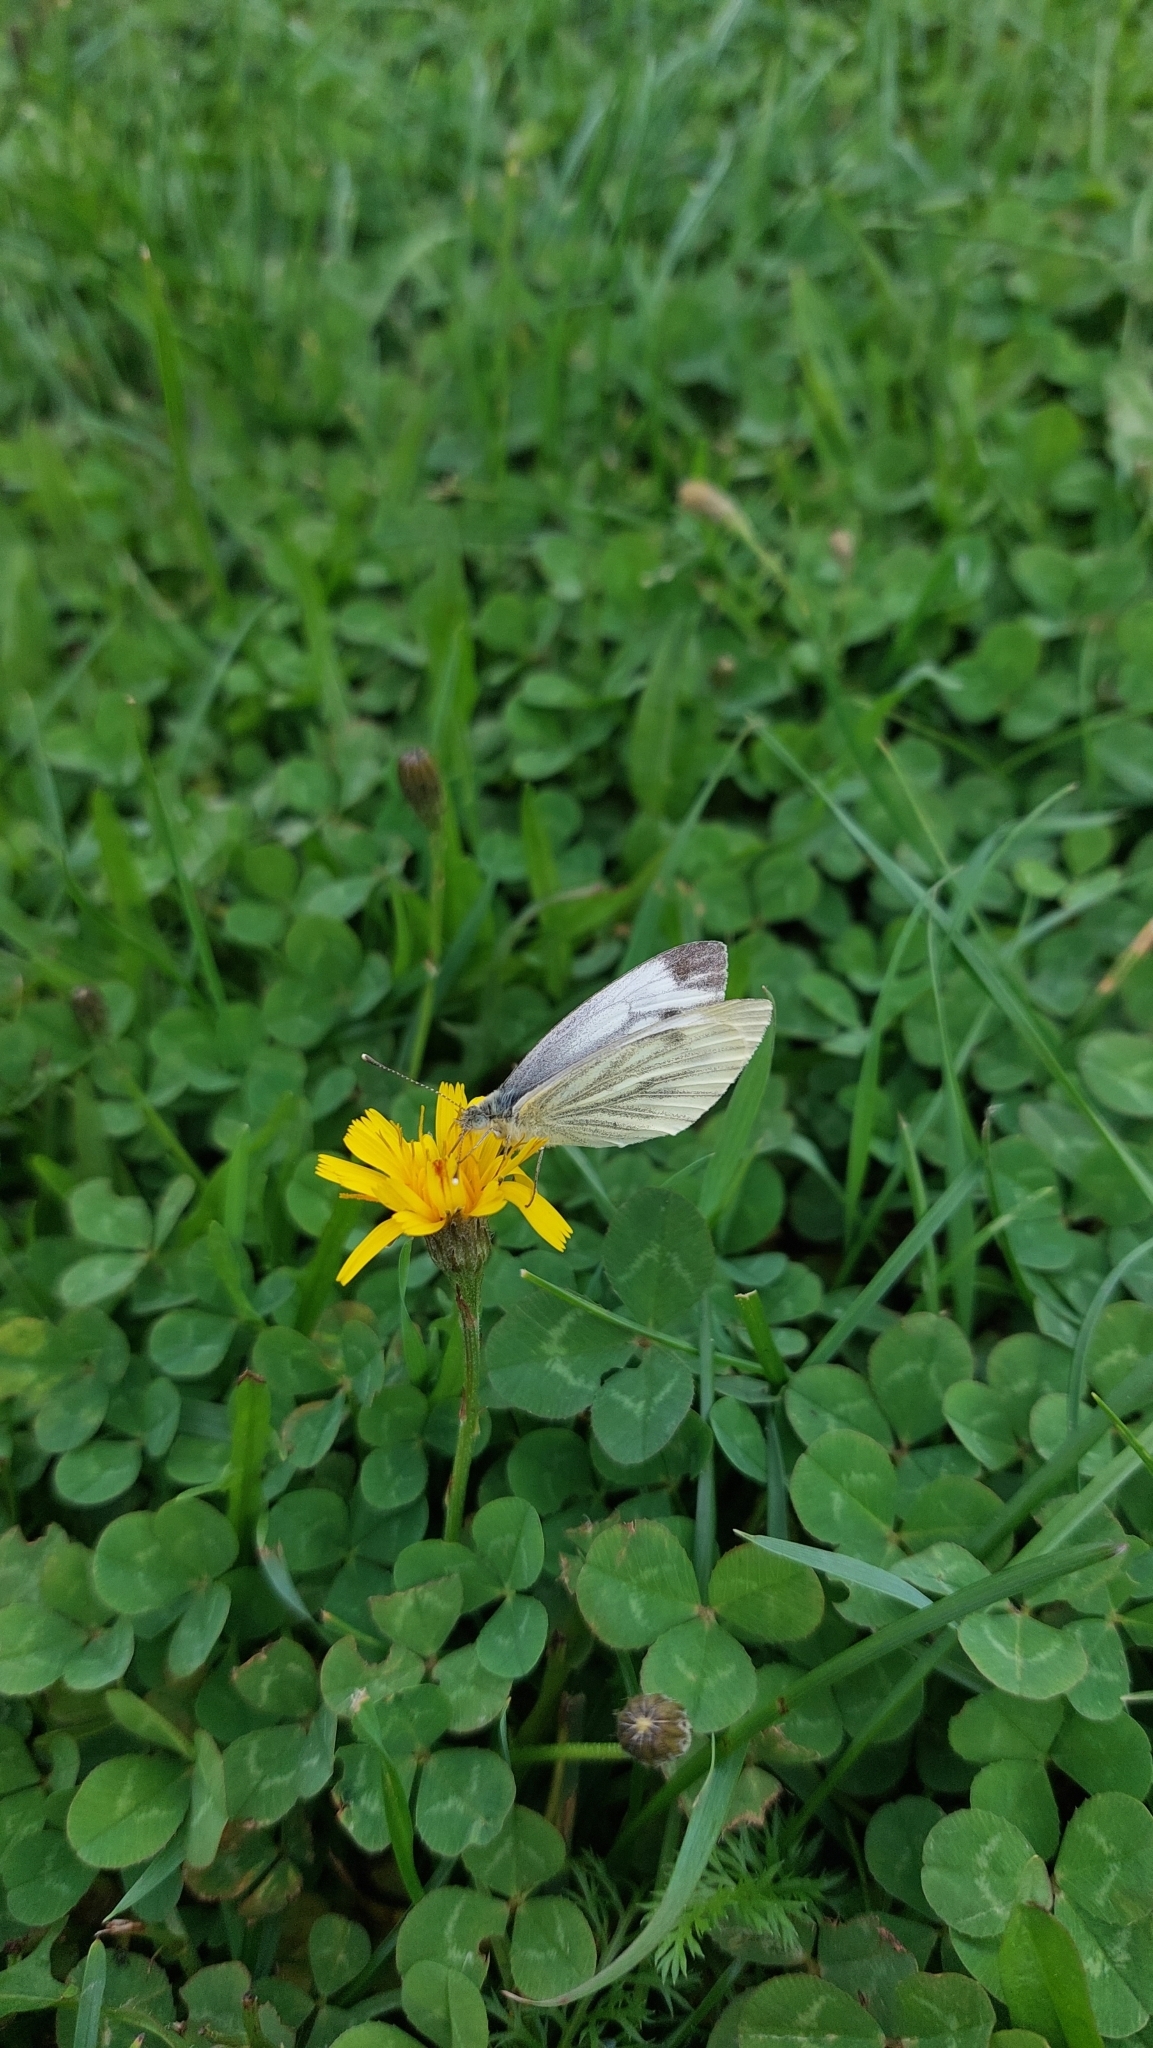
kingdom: Animalia
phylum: Arthropoda
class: Insecta
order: Lepidoptera
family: Pieridae
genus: Pieris
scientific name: Pieris napi
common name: Green-veined white
